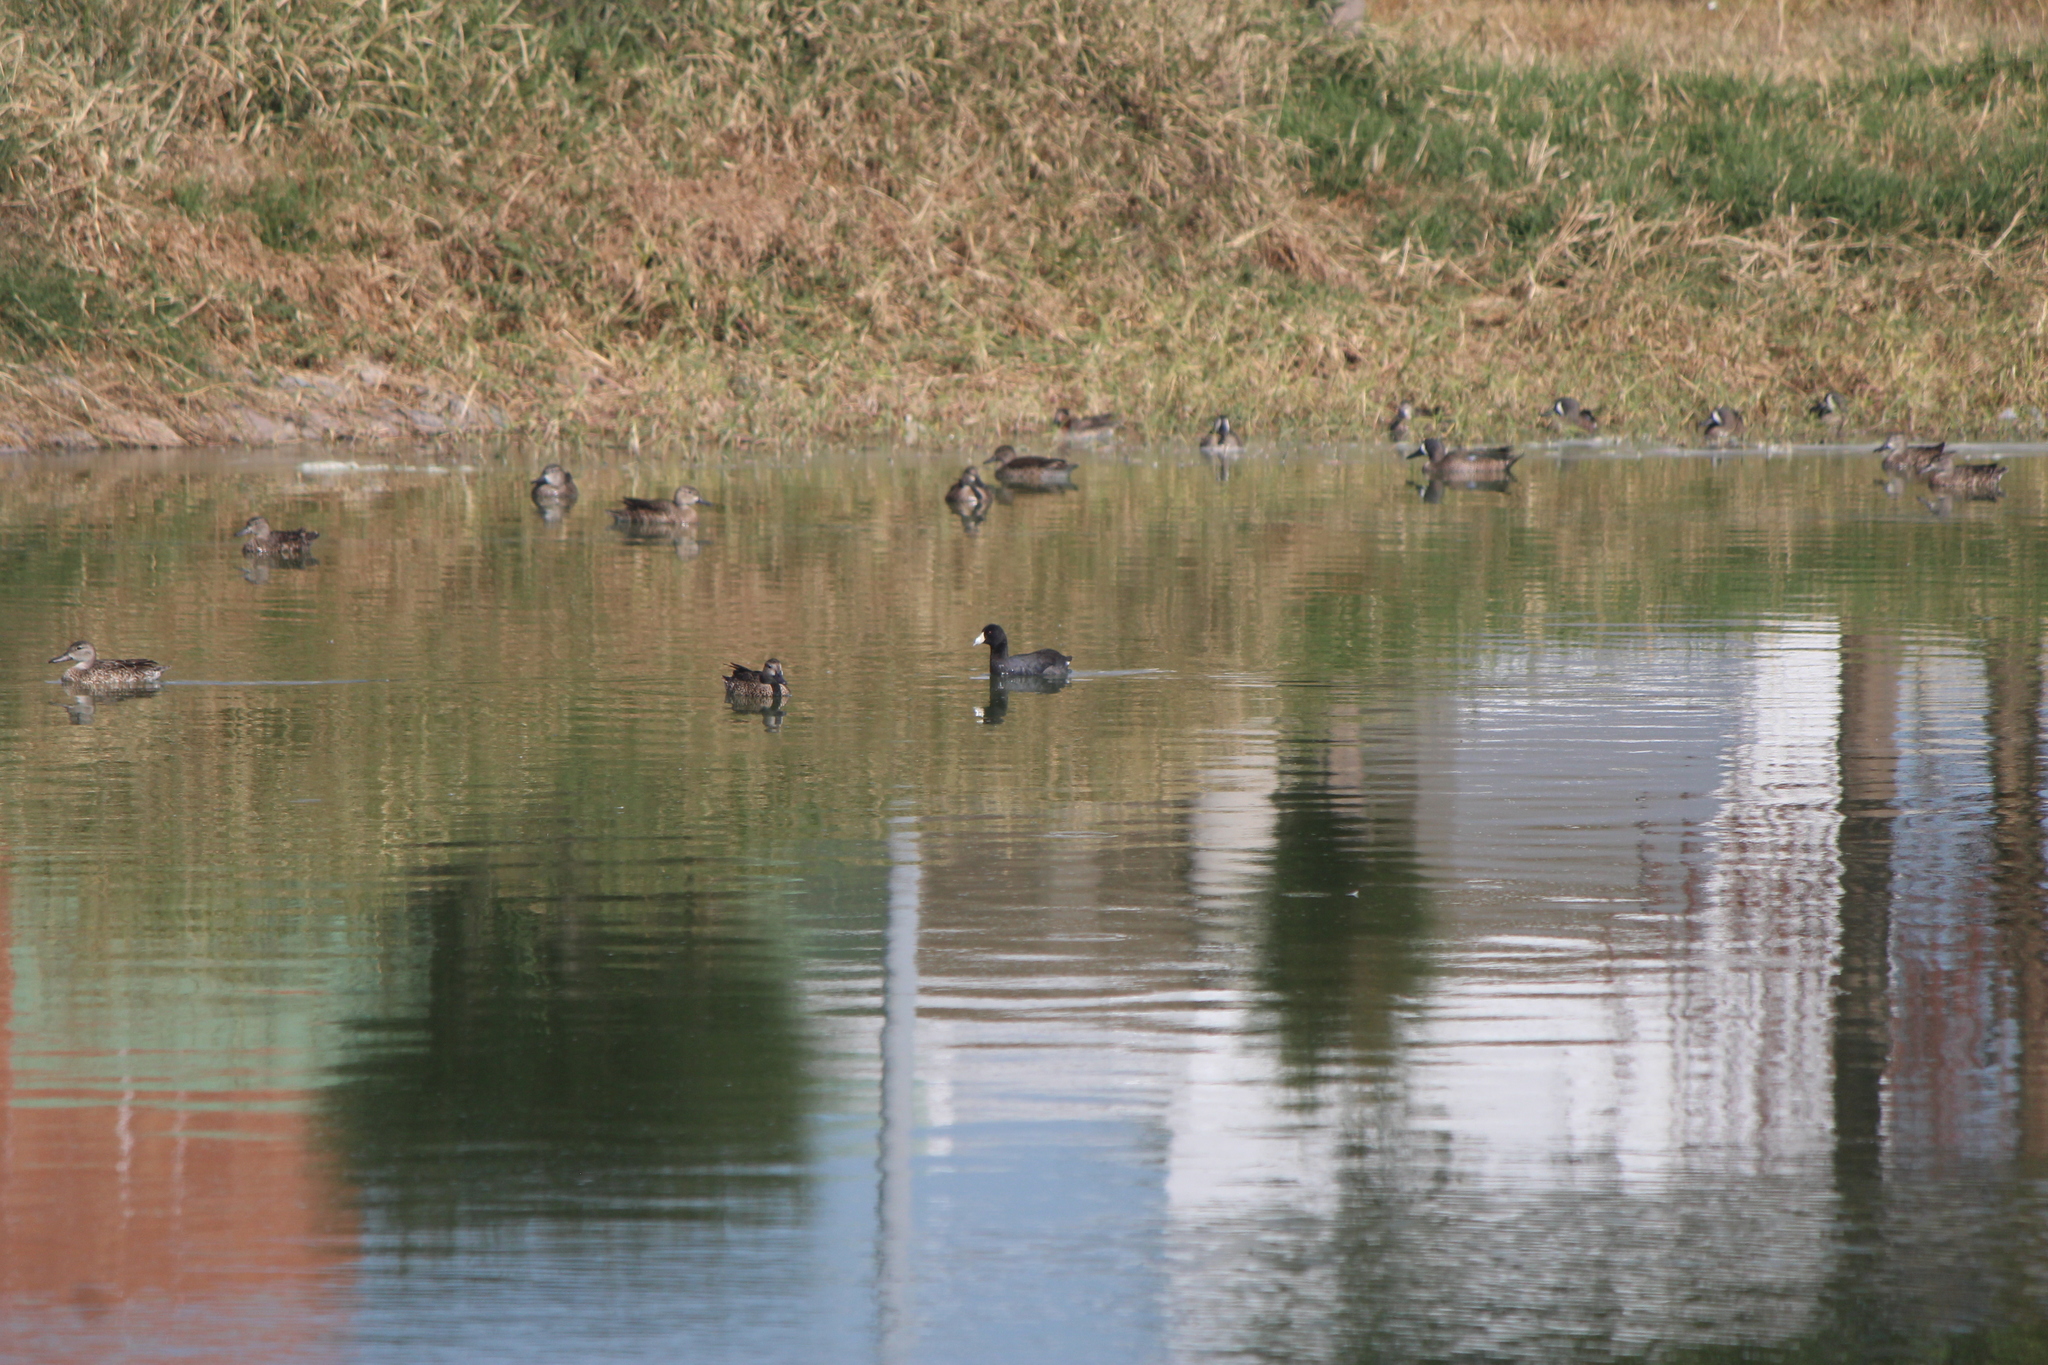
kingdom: Animalia
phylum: Chordata
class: Aves
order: Gruiformes
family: Rallidae
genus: Fulica
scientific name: Fulica americana
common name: American coot
